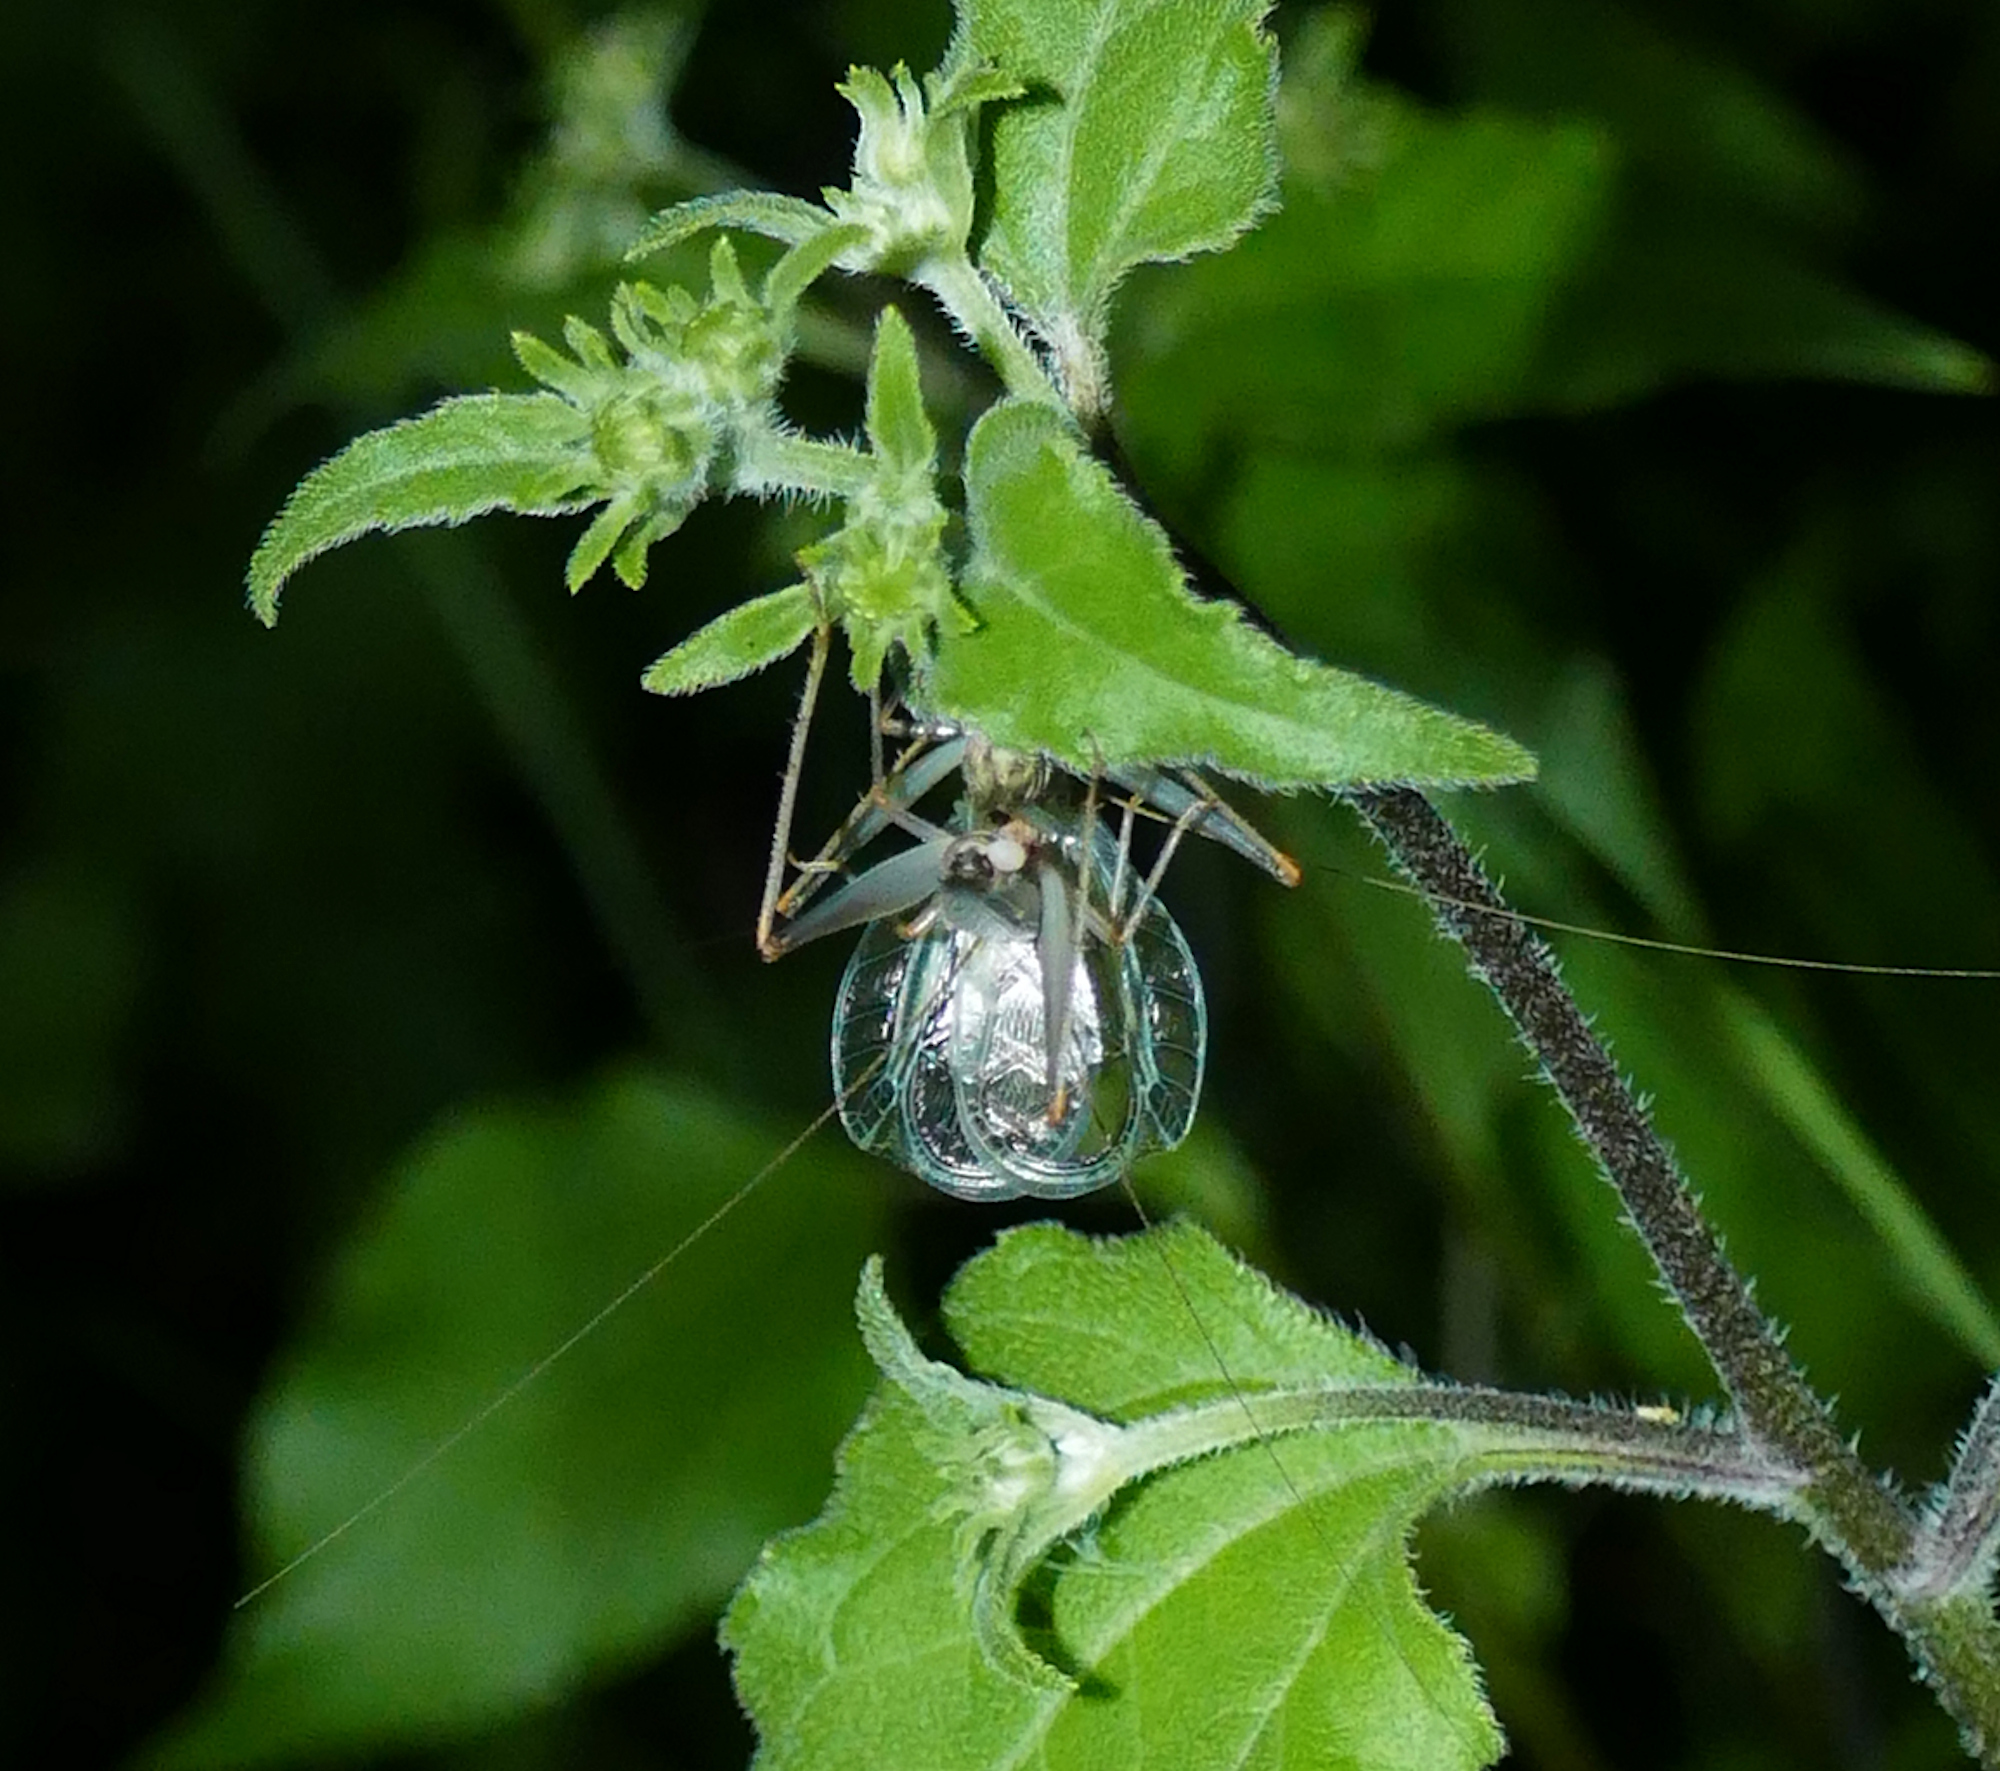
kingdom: Animalia
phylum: Arthropoda
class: Insecta
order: Orthoptera
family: Gryllidae
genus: Oecanthus
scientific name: Oecanthus californicus
